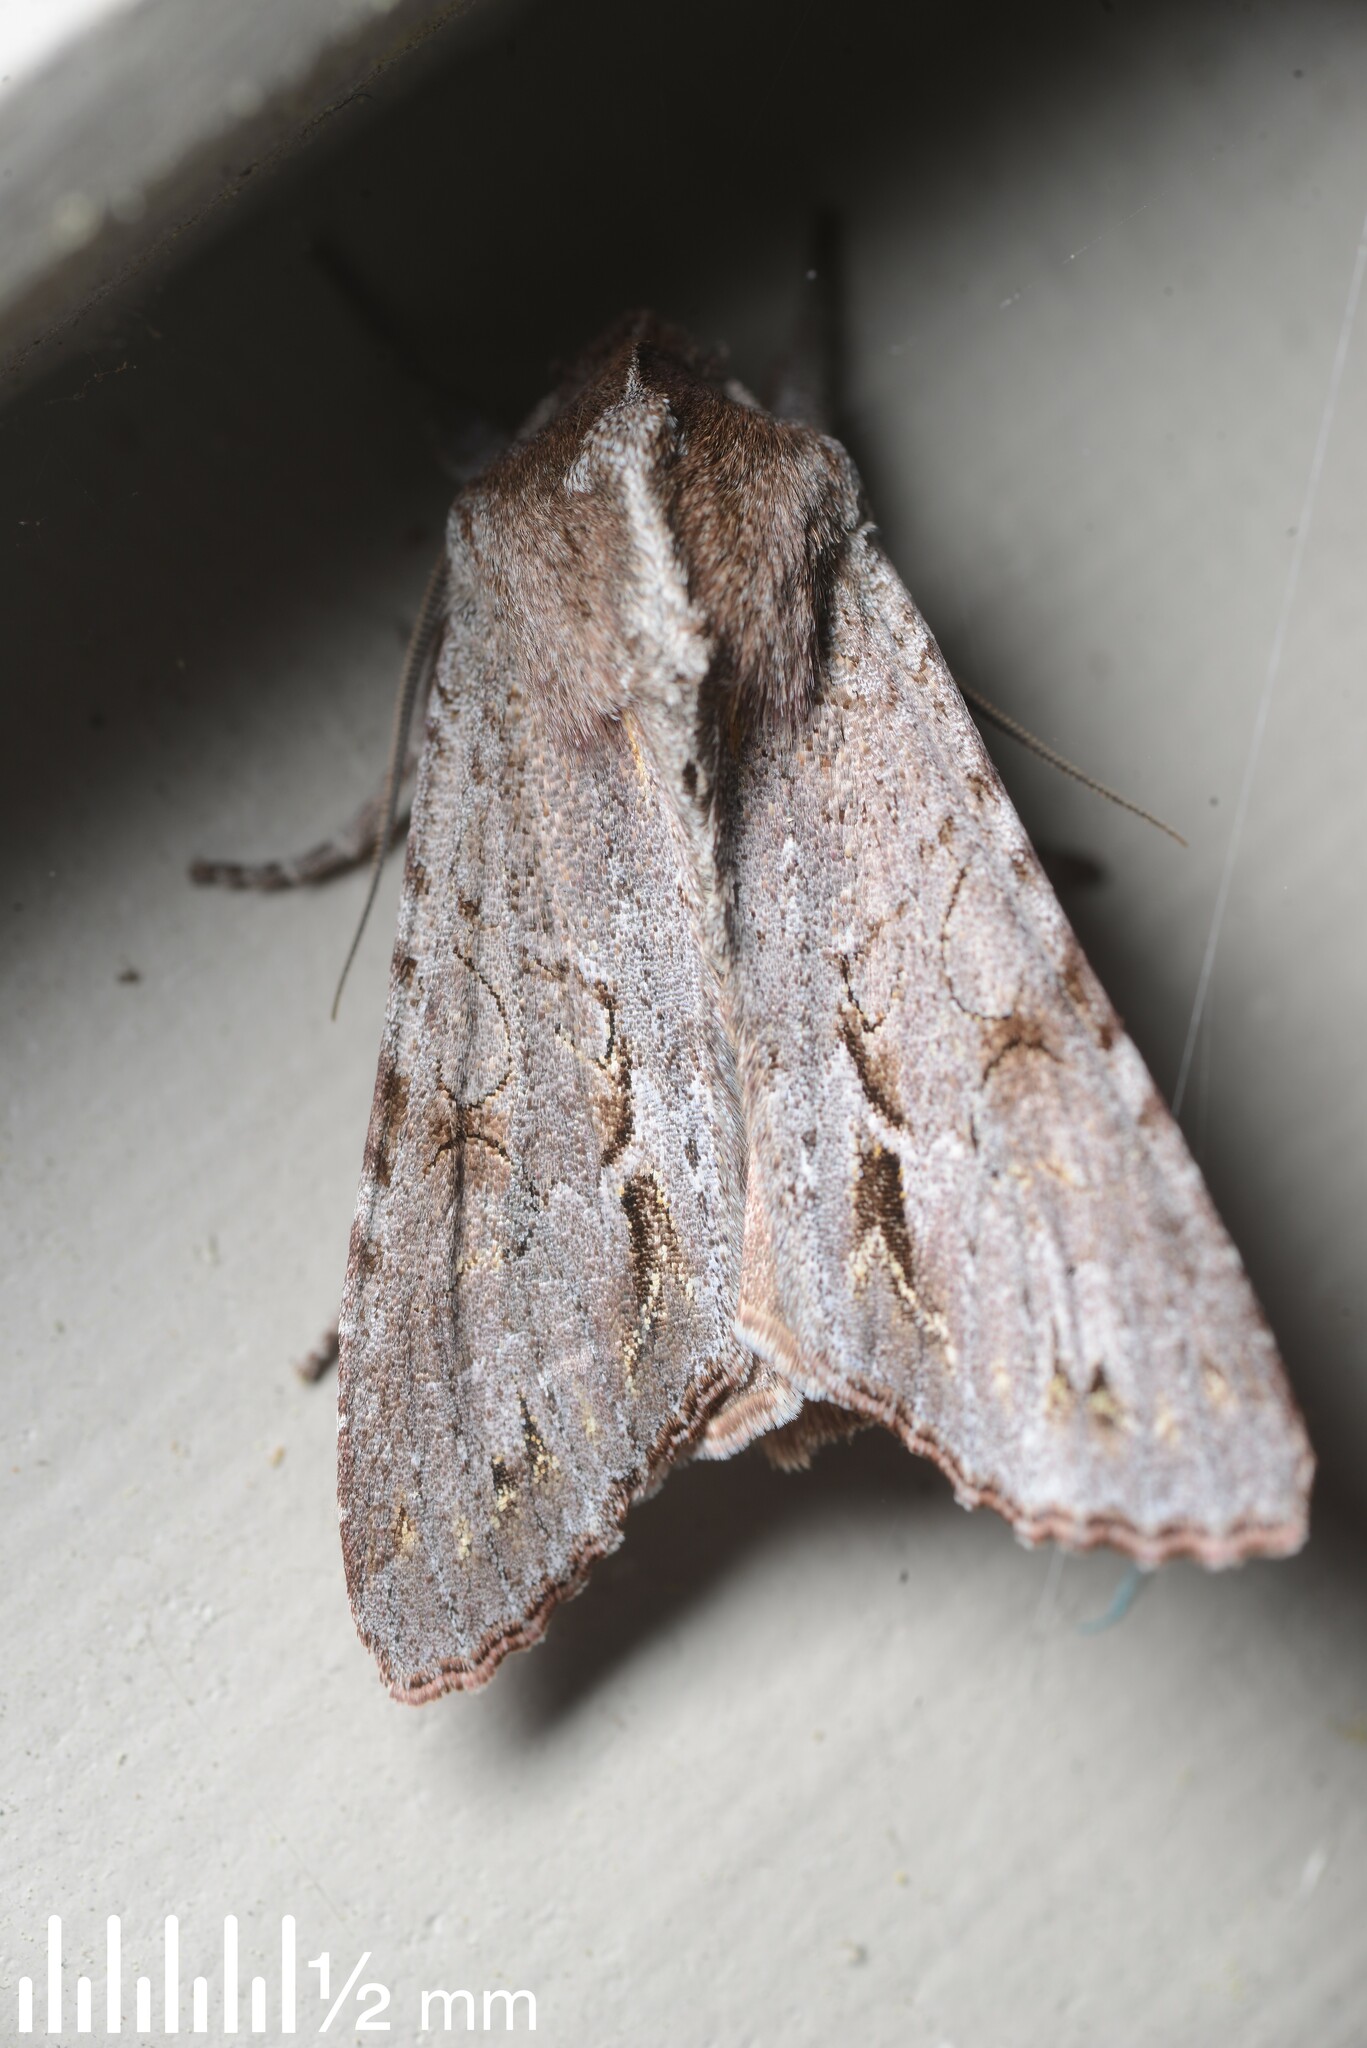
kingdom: Animalia
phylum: Arthropoda
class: Insecta
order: Lepidoptera
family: Noctuidae
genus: Ichneutica
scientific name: Ichneutica
